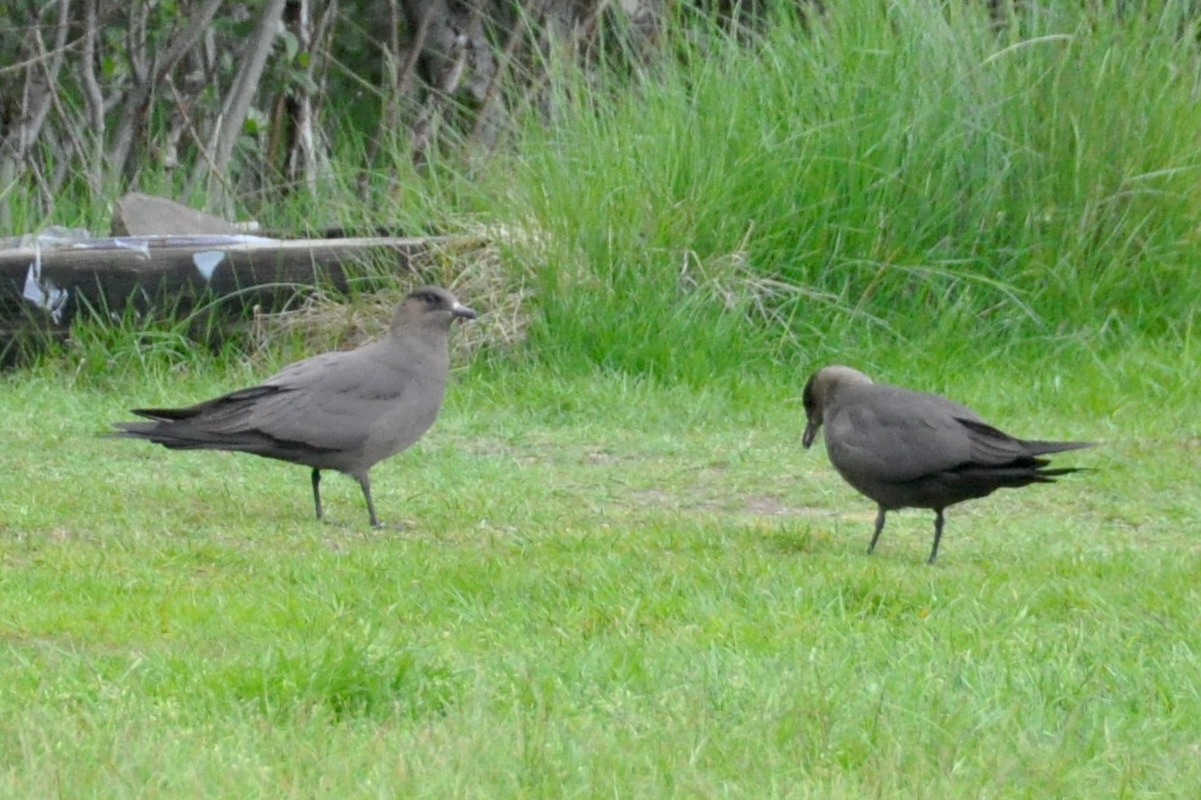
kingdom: Animalia
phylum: Chordata
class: Aves
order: Charadriiformes
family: Stercorariidae
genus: Stercorarius
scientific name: Stercorarius parasiticus
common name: Parasitic jaeger
